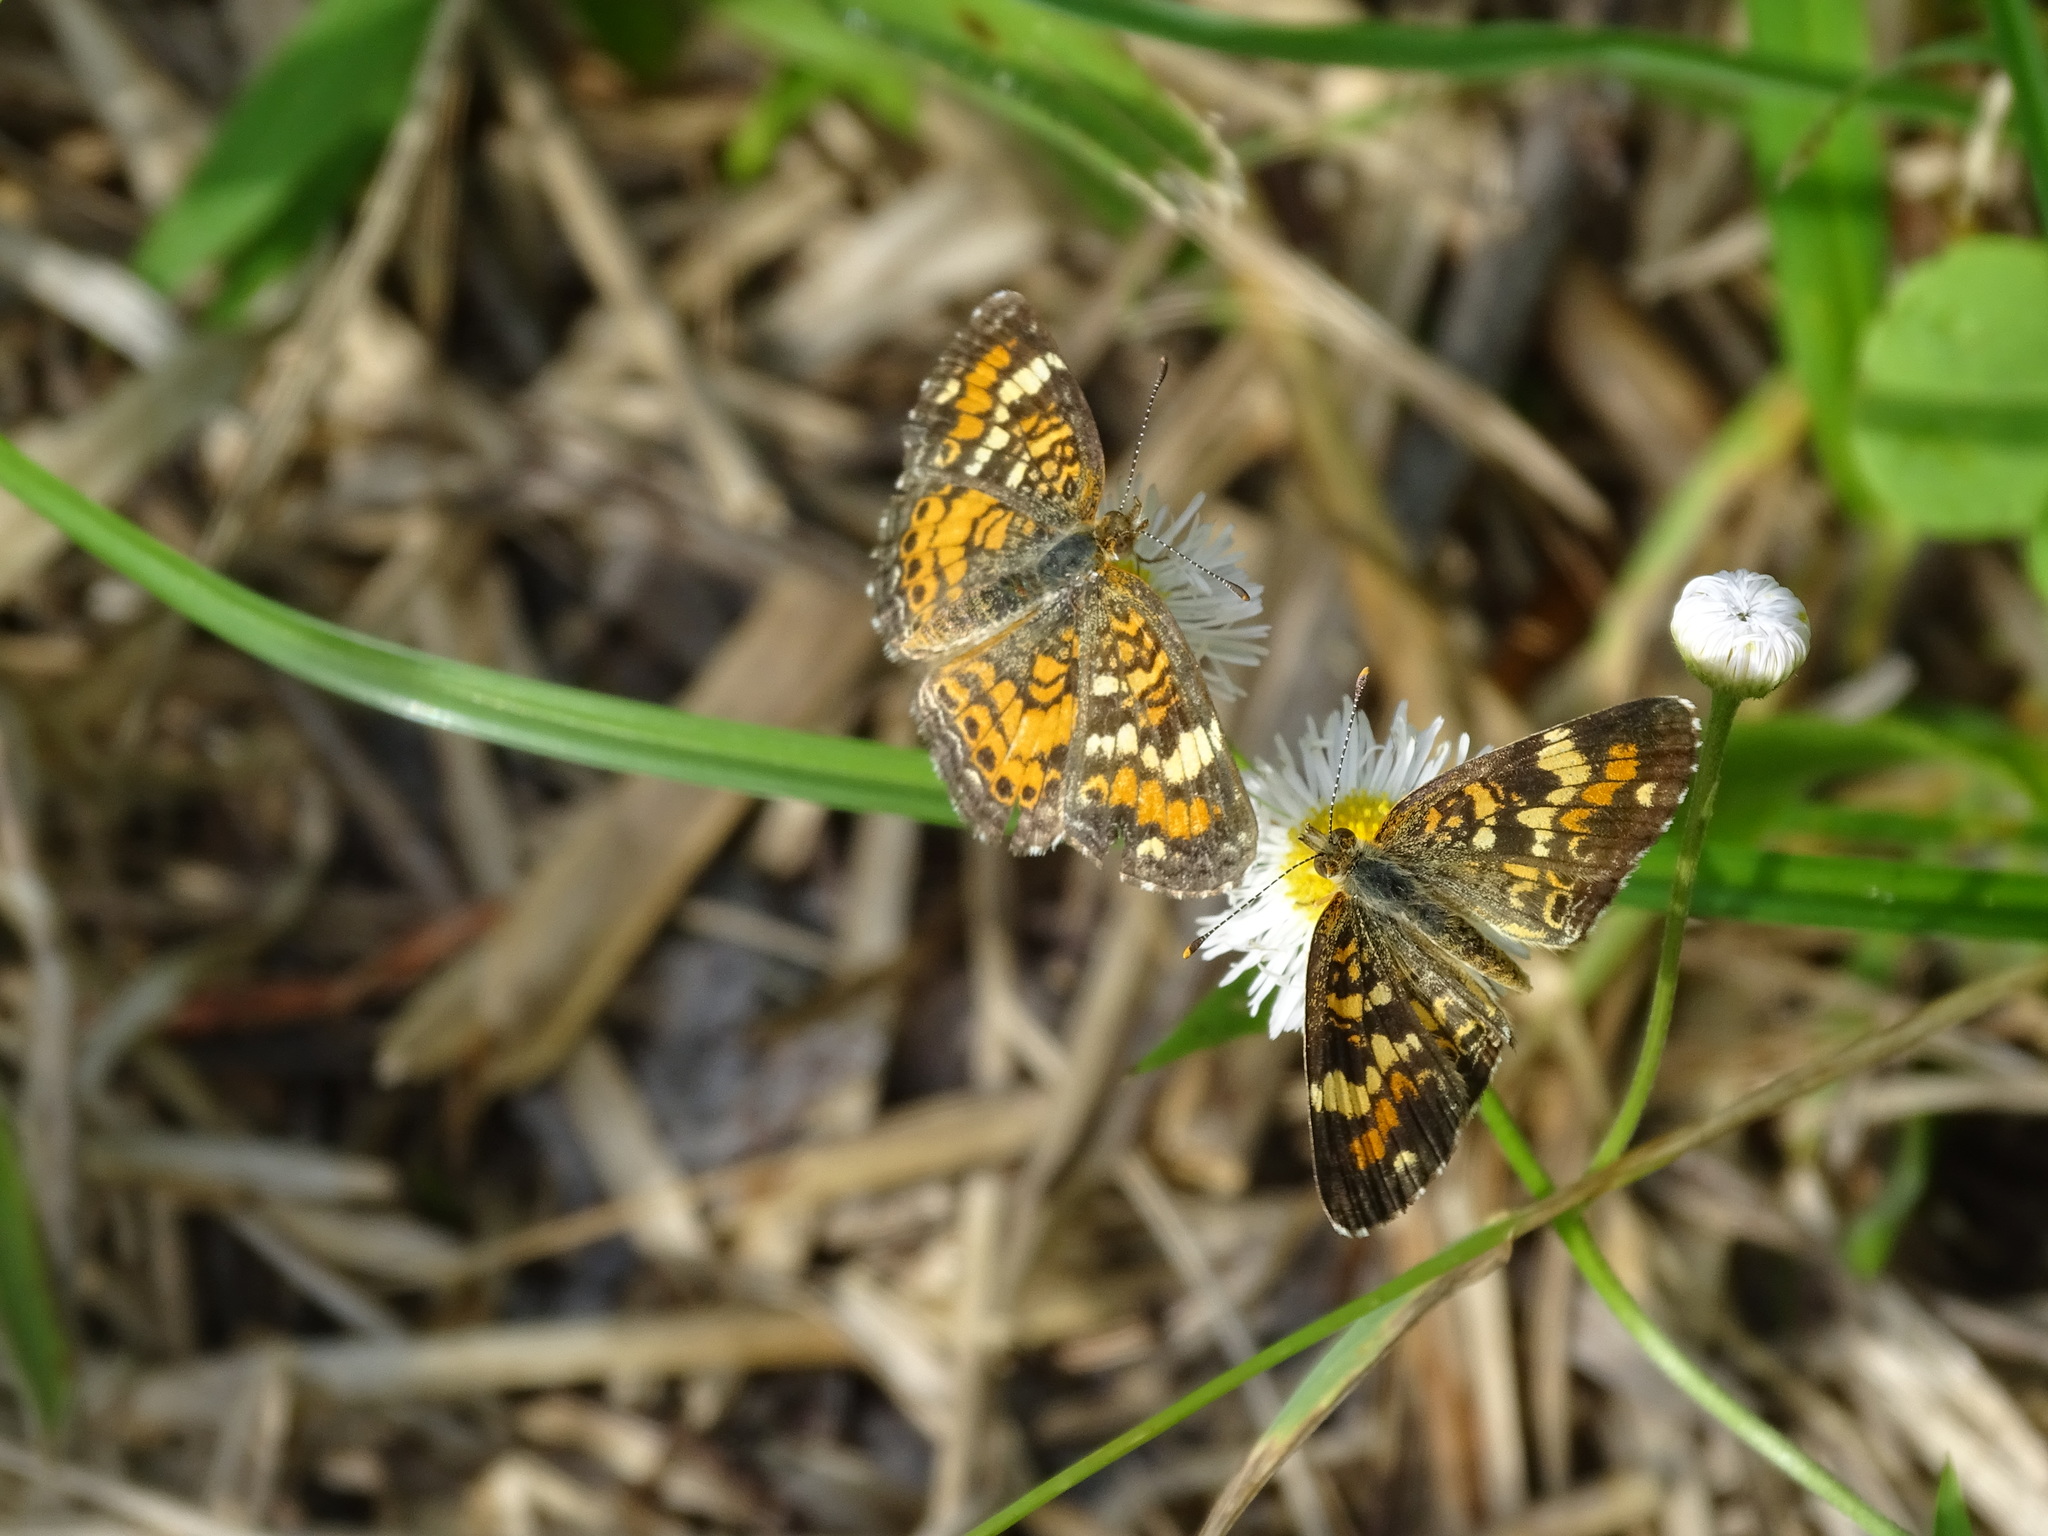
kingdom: Animalia
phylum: Arthropoda
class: Insecta
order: Lepidoptera
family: Nymphalidae
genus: Phyciodes
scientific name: Phyciodes phaon
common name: Phaon crescent
